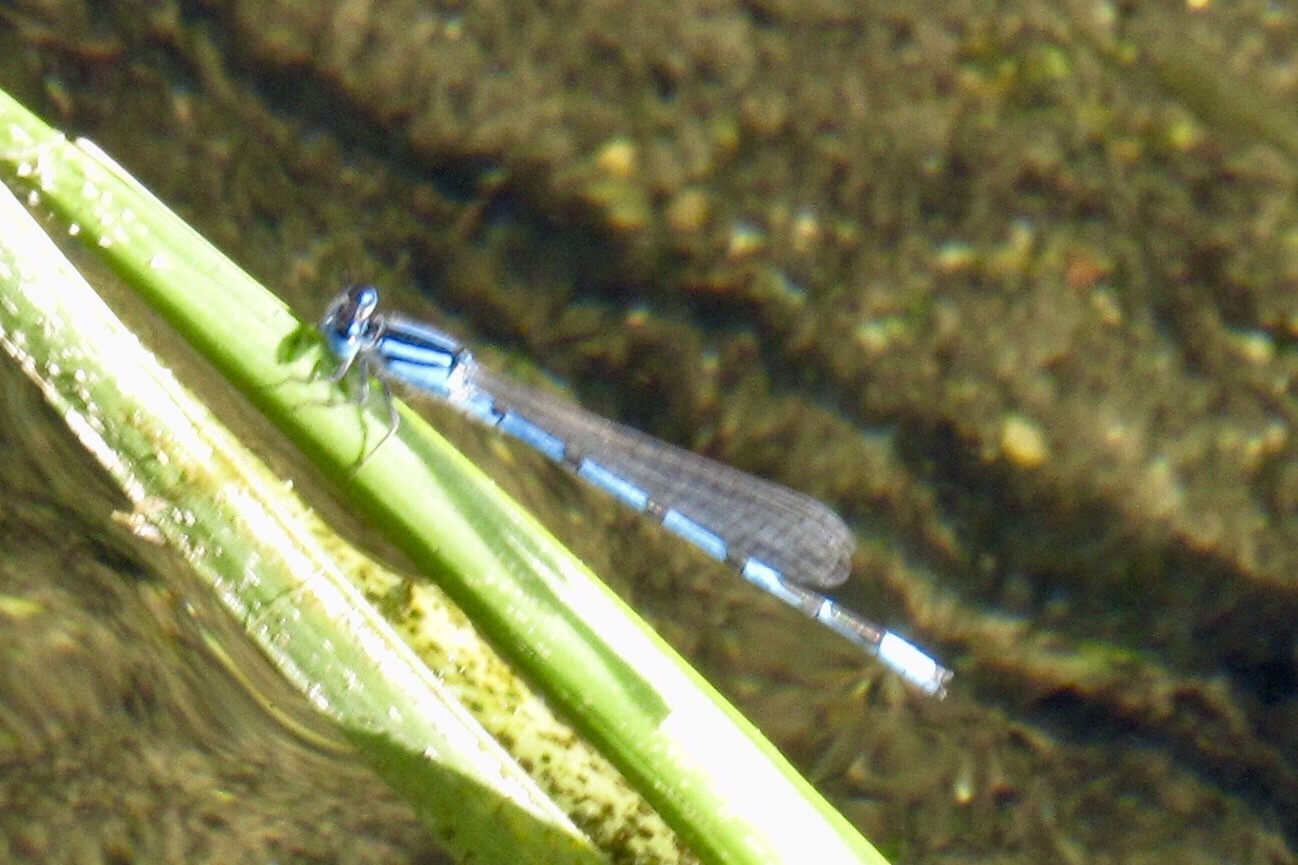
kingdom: Animalia
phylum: Arthropoda
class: Insecta
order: Odonata
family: Coenagrionidae
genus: Enallagma
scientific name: Enallagma civile
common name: Damselfly
